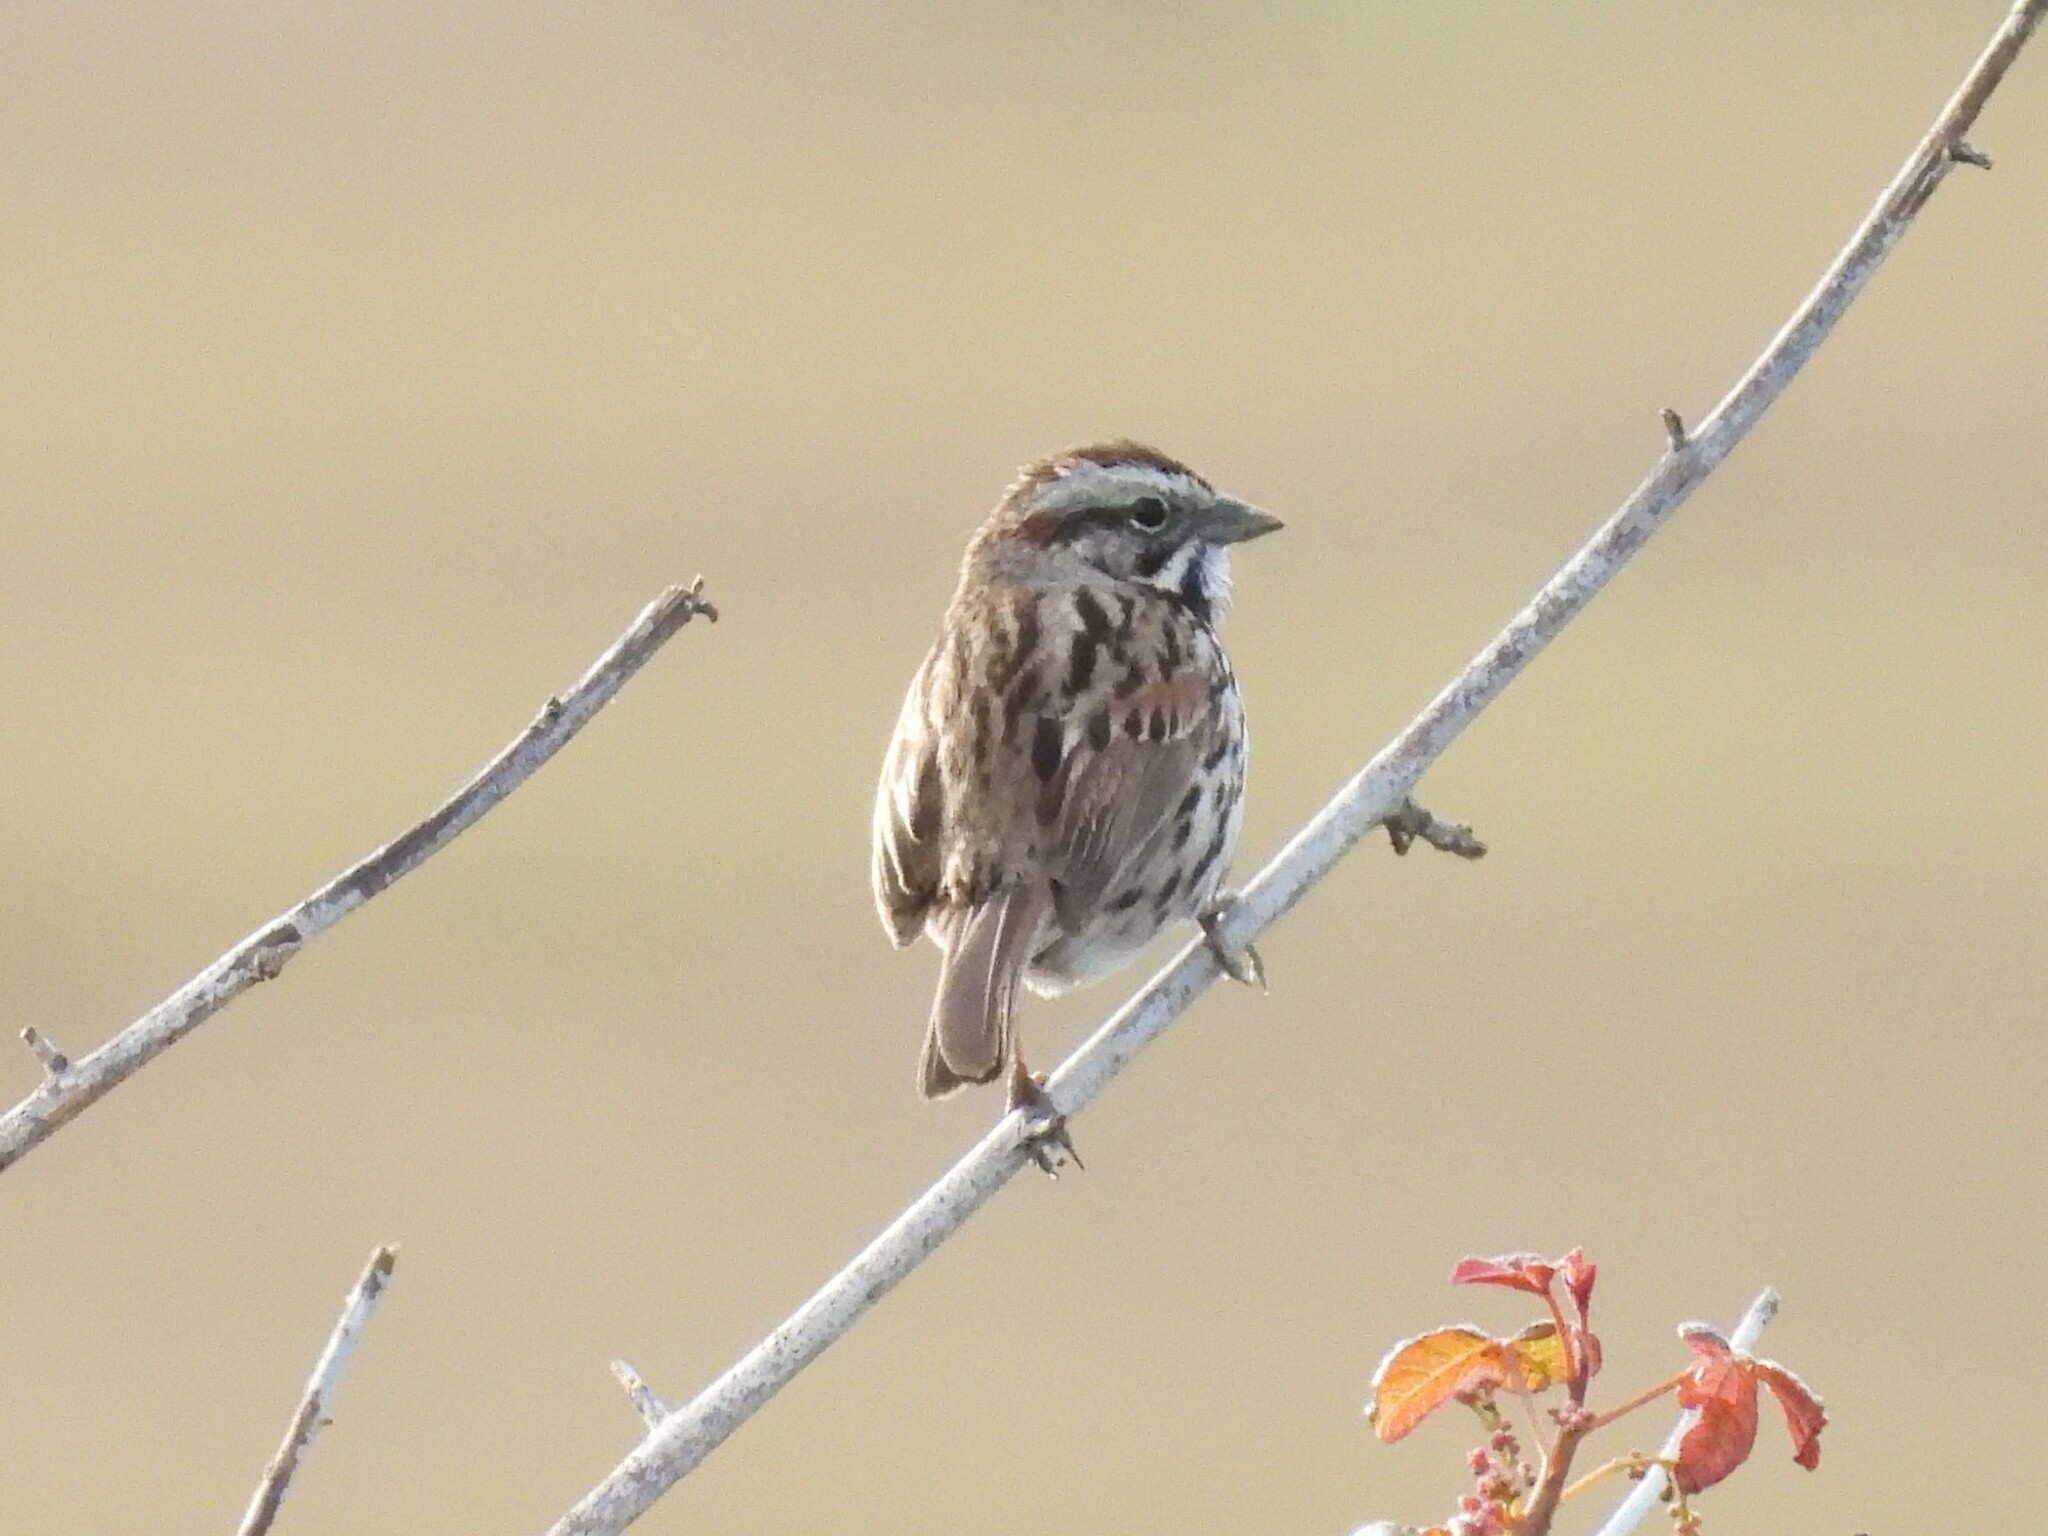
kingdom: Animalia
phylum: Chordata
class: Aves
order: Passeriformes
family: Passerellidae
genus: Melospiza
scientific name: Melospiza melodia
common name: Song sparrow
